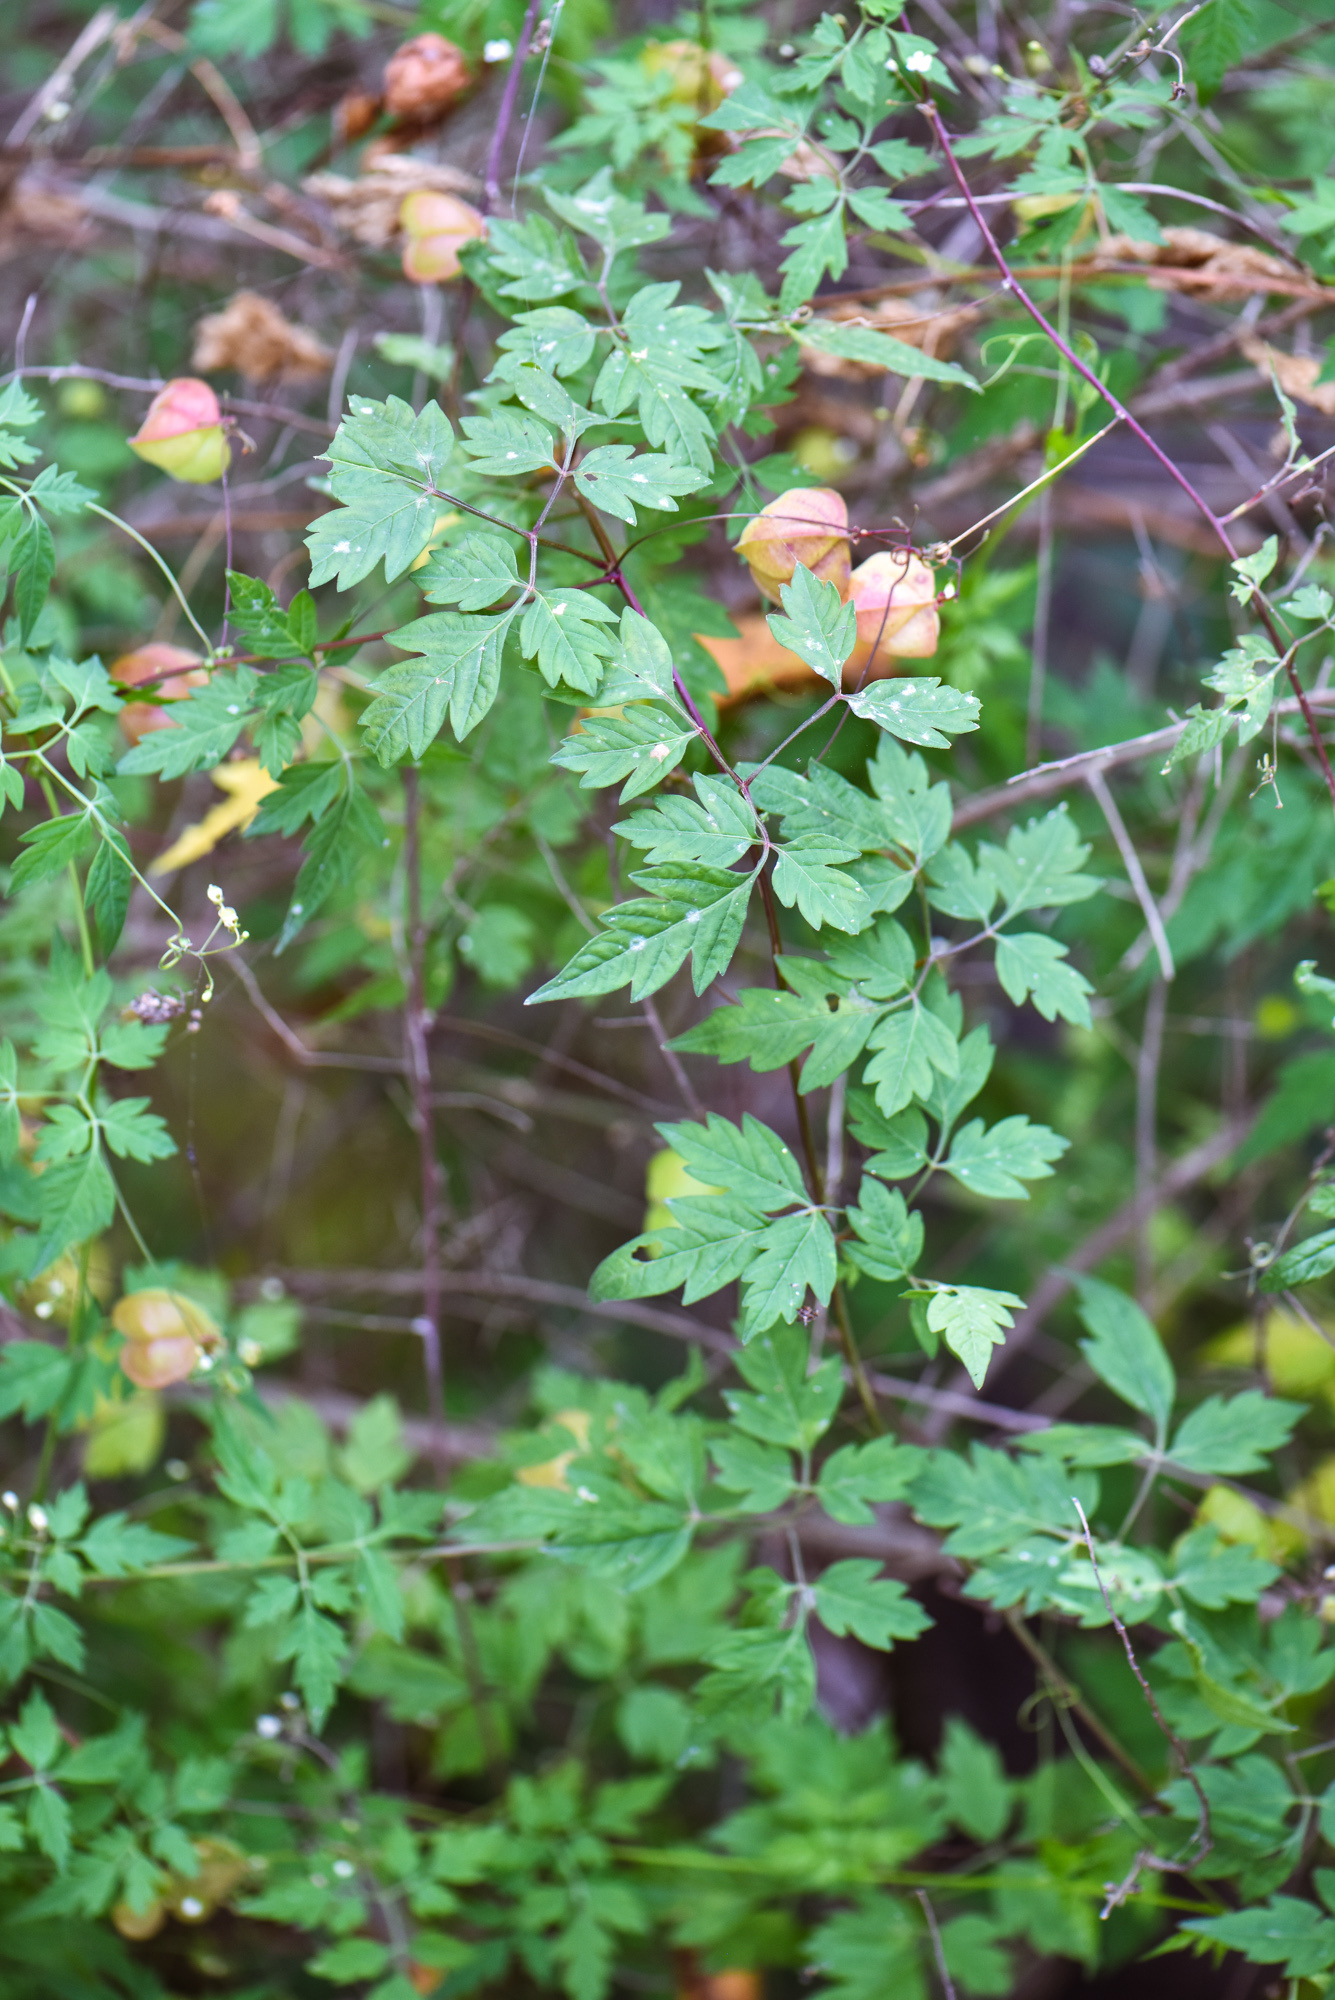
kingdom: Plantae
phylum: Tracheophyta
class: Magnoliopsida
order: Sapindales
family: Sapindaceae
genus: Cardiospermum
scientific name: Cardiospermum halicacabum
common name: Balloon vine
